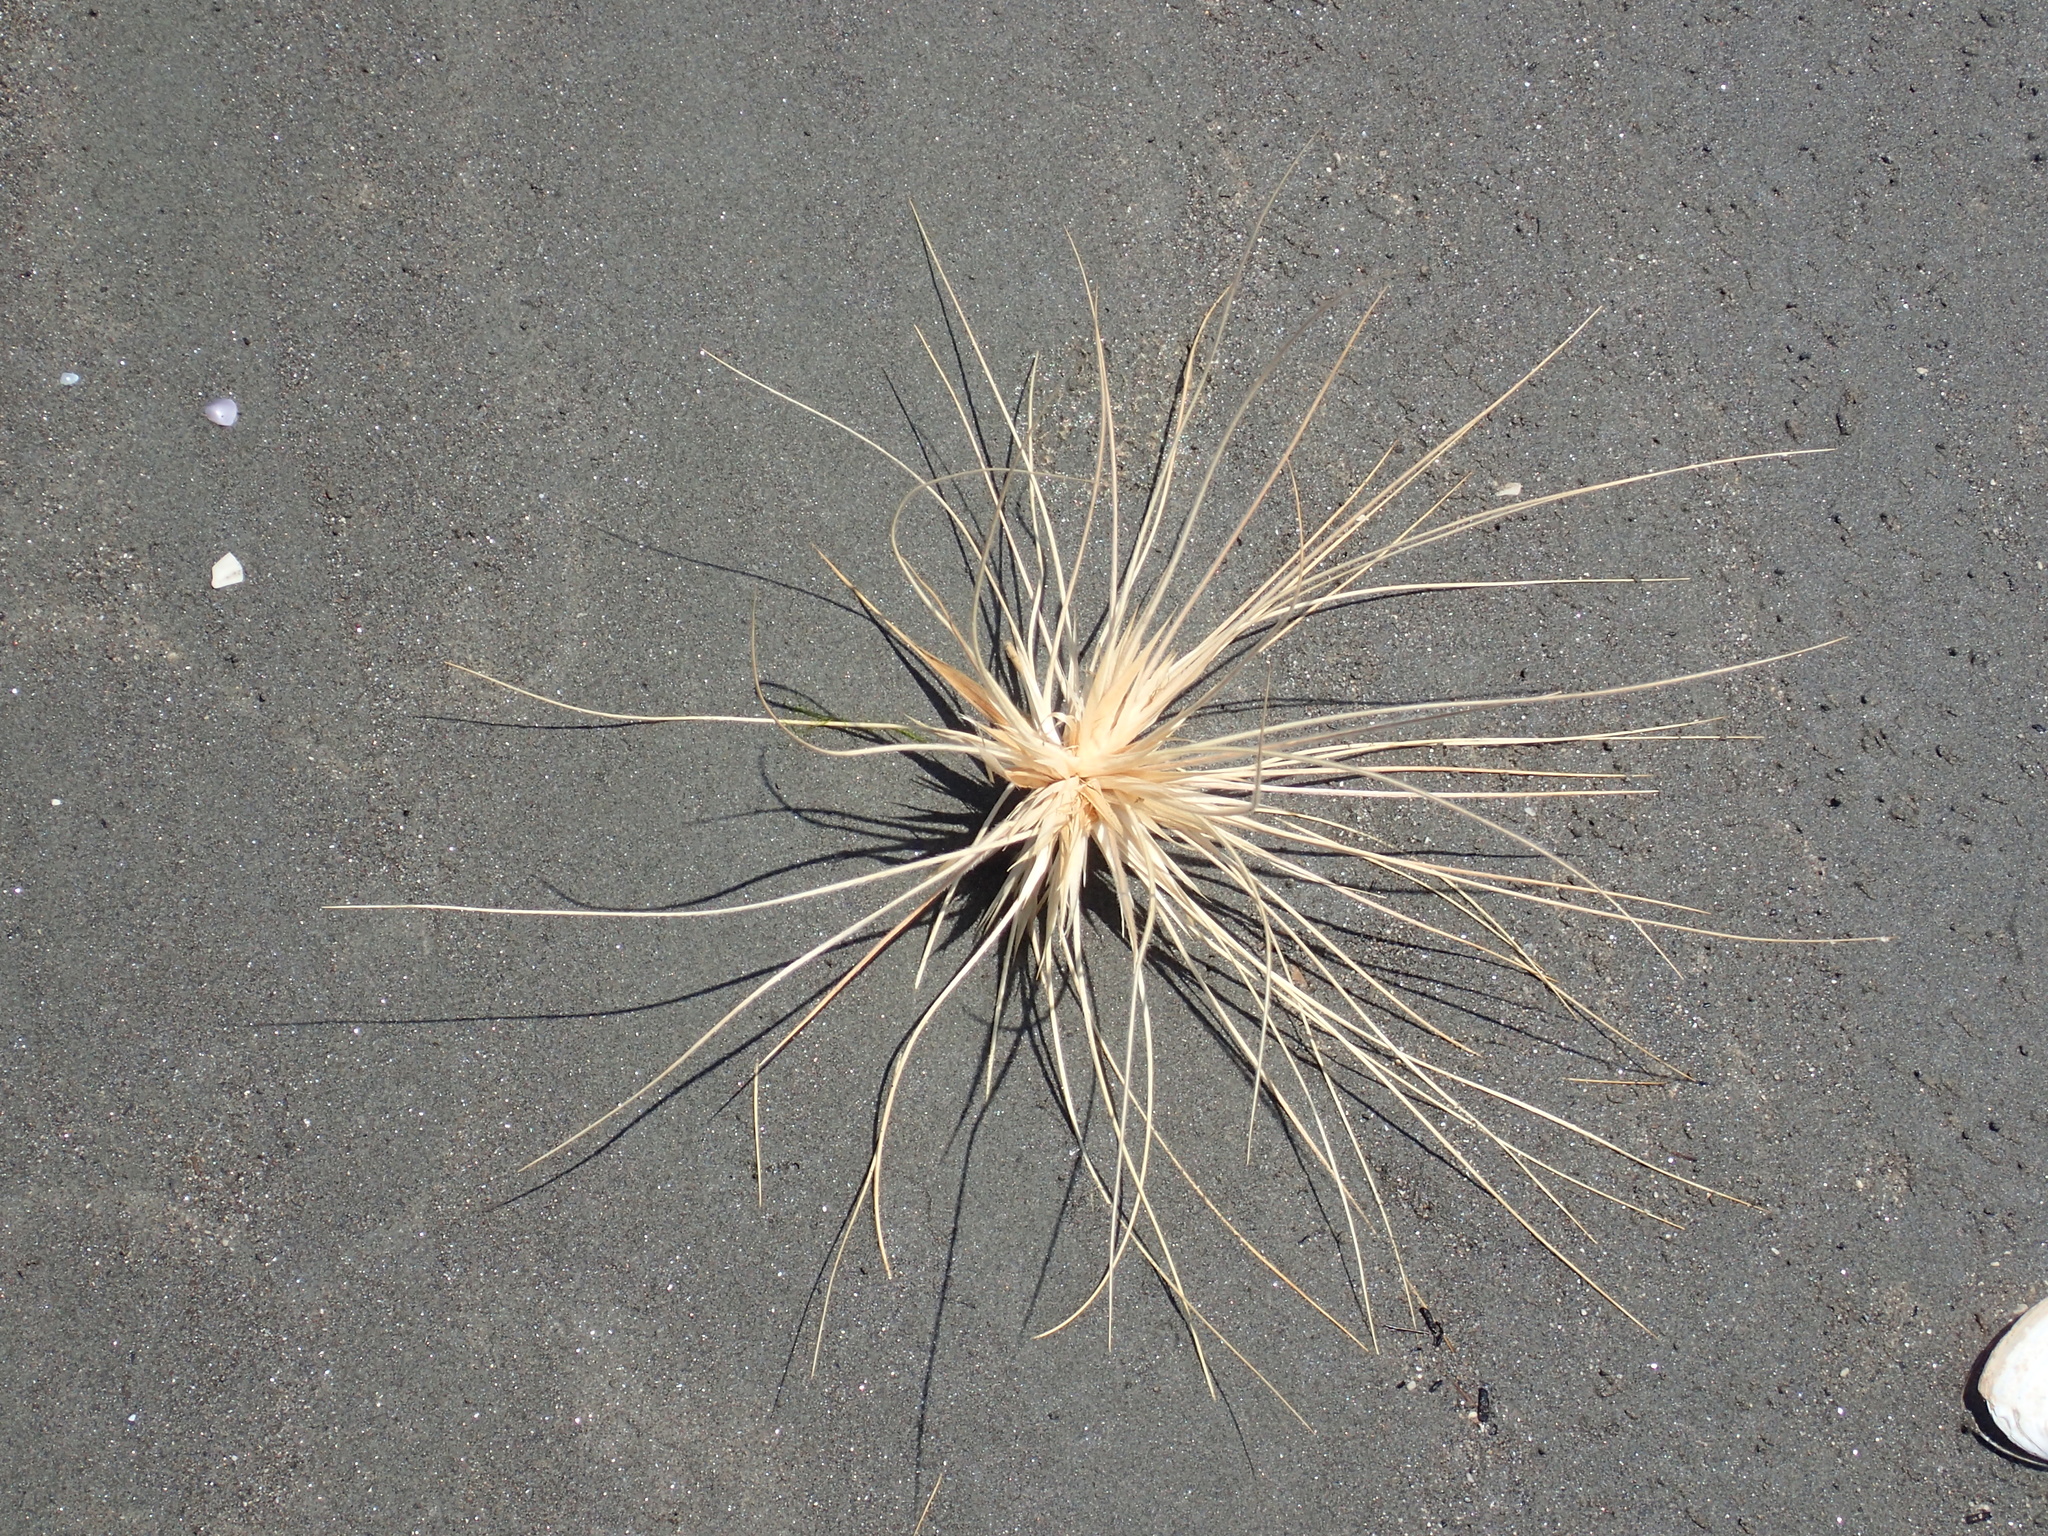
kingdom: Plantae
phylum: Tracheophyta
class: Liliopsida
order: Poales
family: Poaceae
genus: Spinifex
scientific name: Spinifex sericeus
